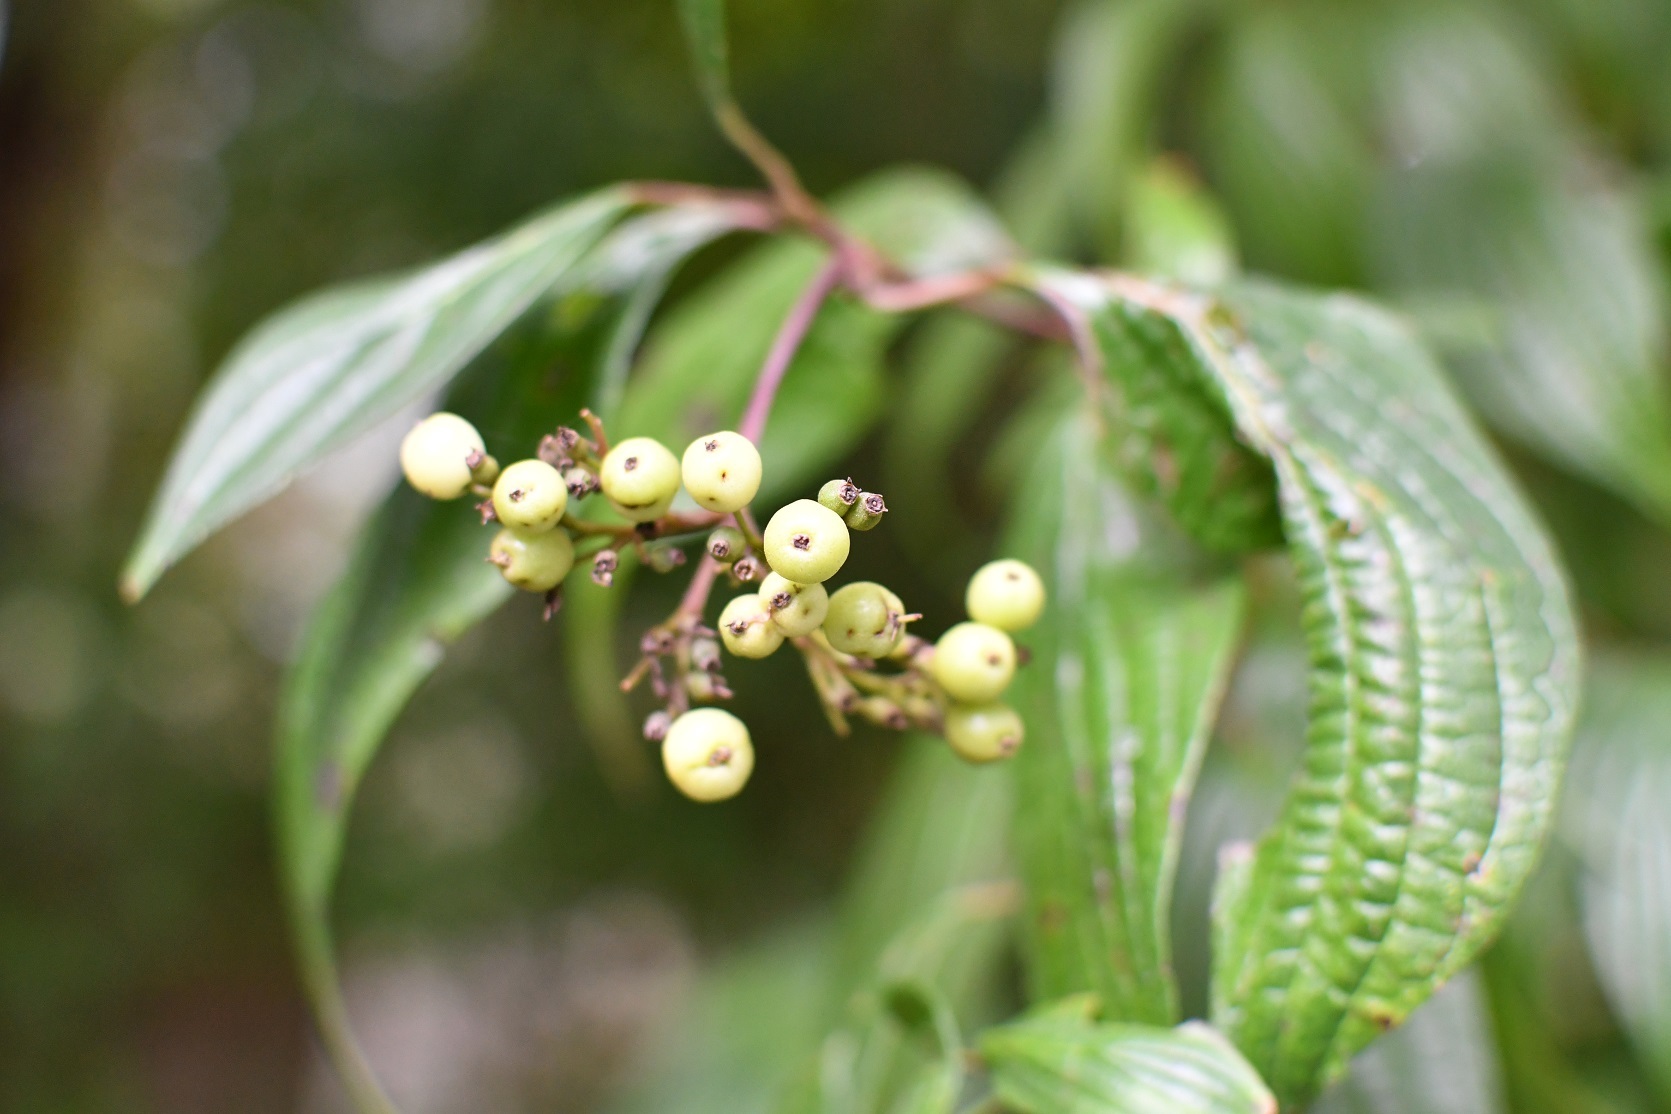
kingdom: Plantae
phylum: Tracheophyta
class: Magnoliopsida
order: Cornales
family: Cornaceae
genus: Cornus
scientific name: Cornus excelsa
